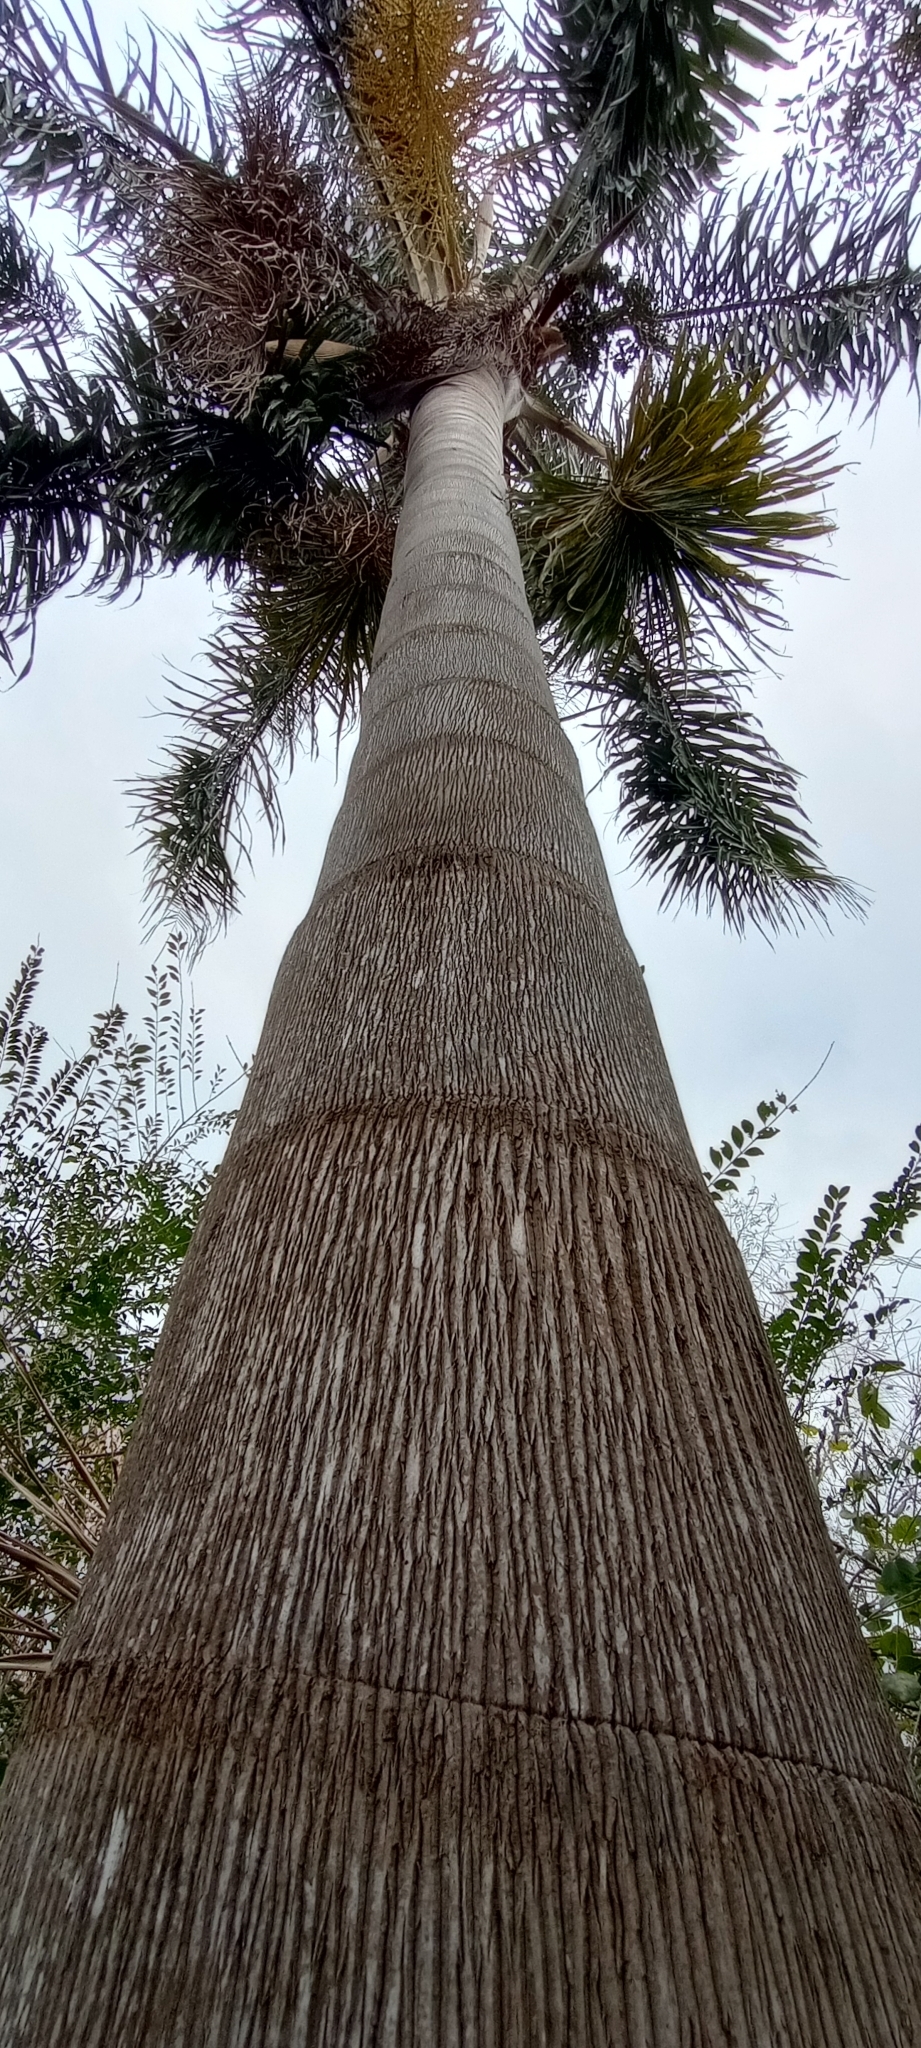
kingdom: Plantae
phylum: Tracheophyta
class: Liliopsida
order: Arecales
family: Arecaceae
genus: Syagrus
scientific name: Syagrus romanzoffiana
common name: Queen palm
